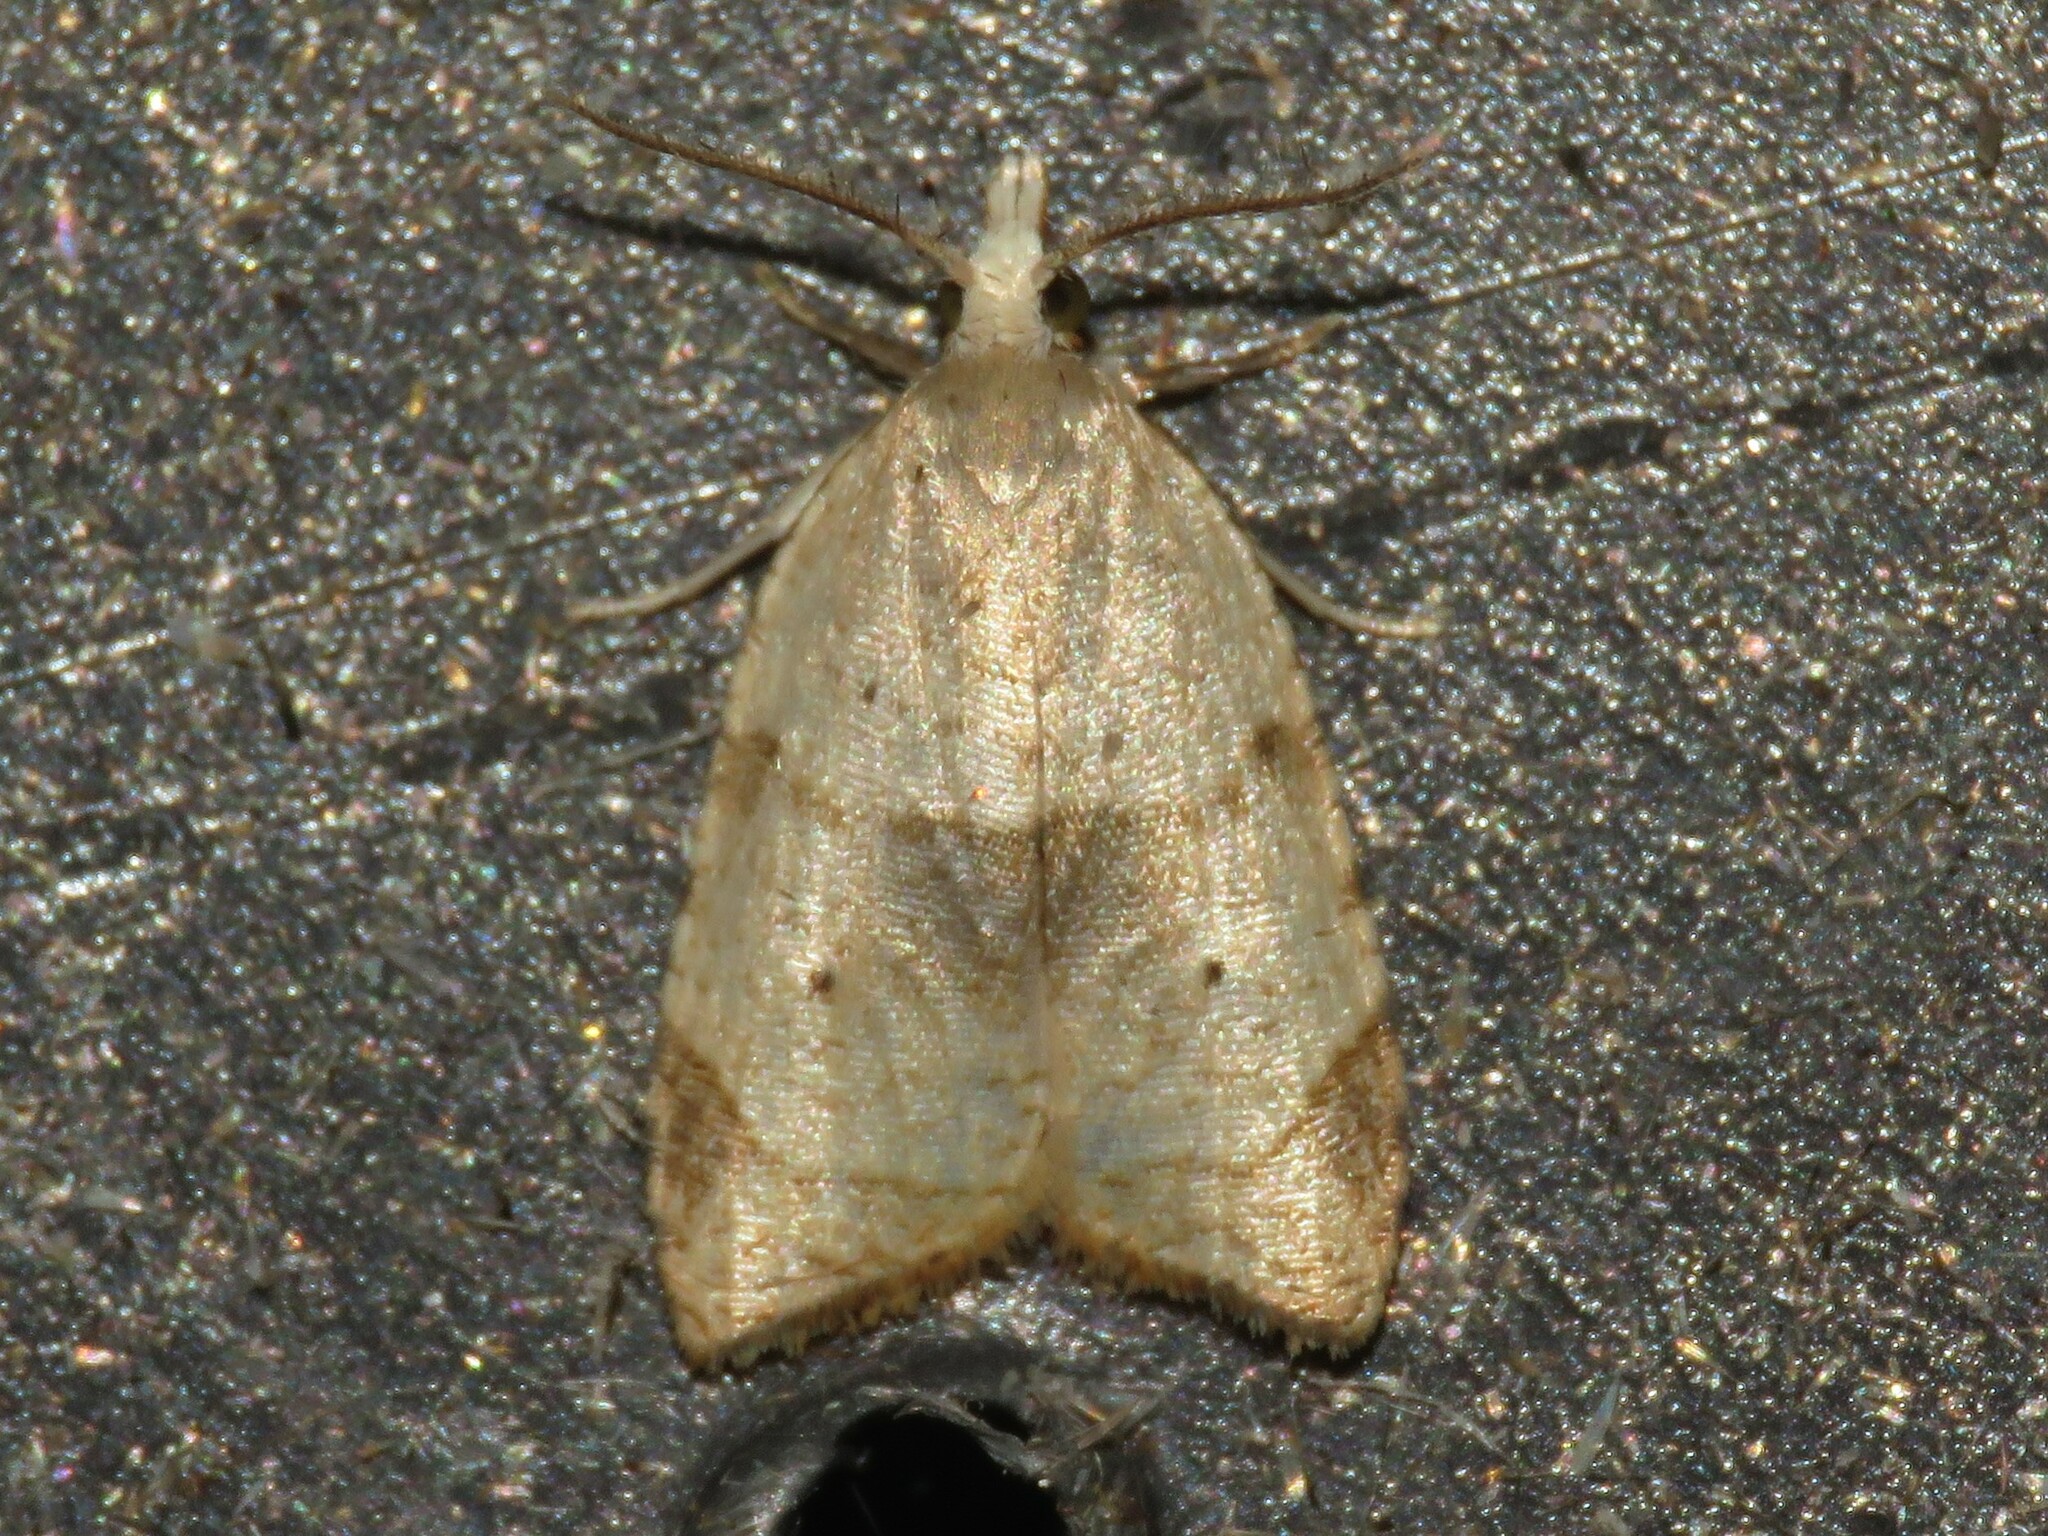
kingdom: Animalia
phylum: Arthropoda
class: Insecta
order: Lepidoptera
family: Tortricidae
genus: Coelostathma
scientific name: Coelostathma discopunctana
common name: Batman moth
